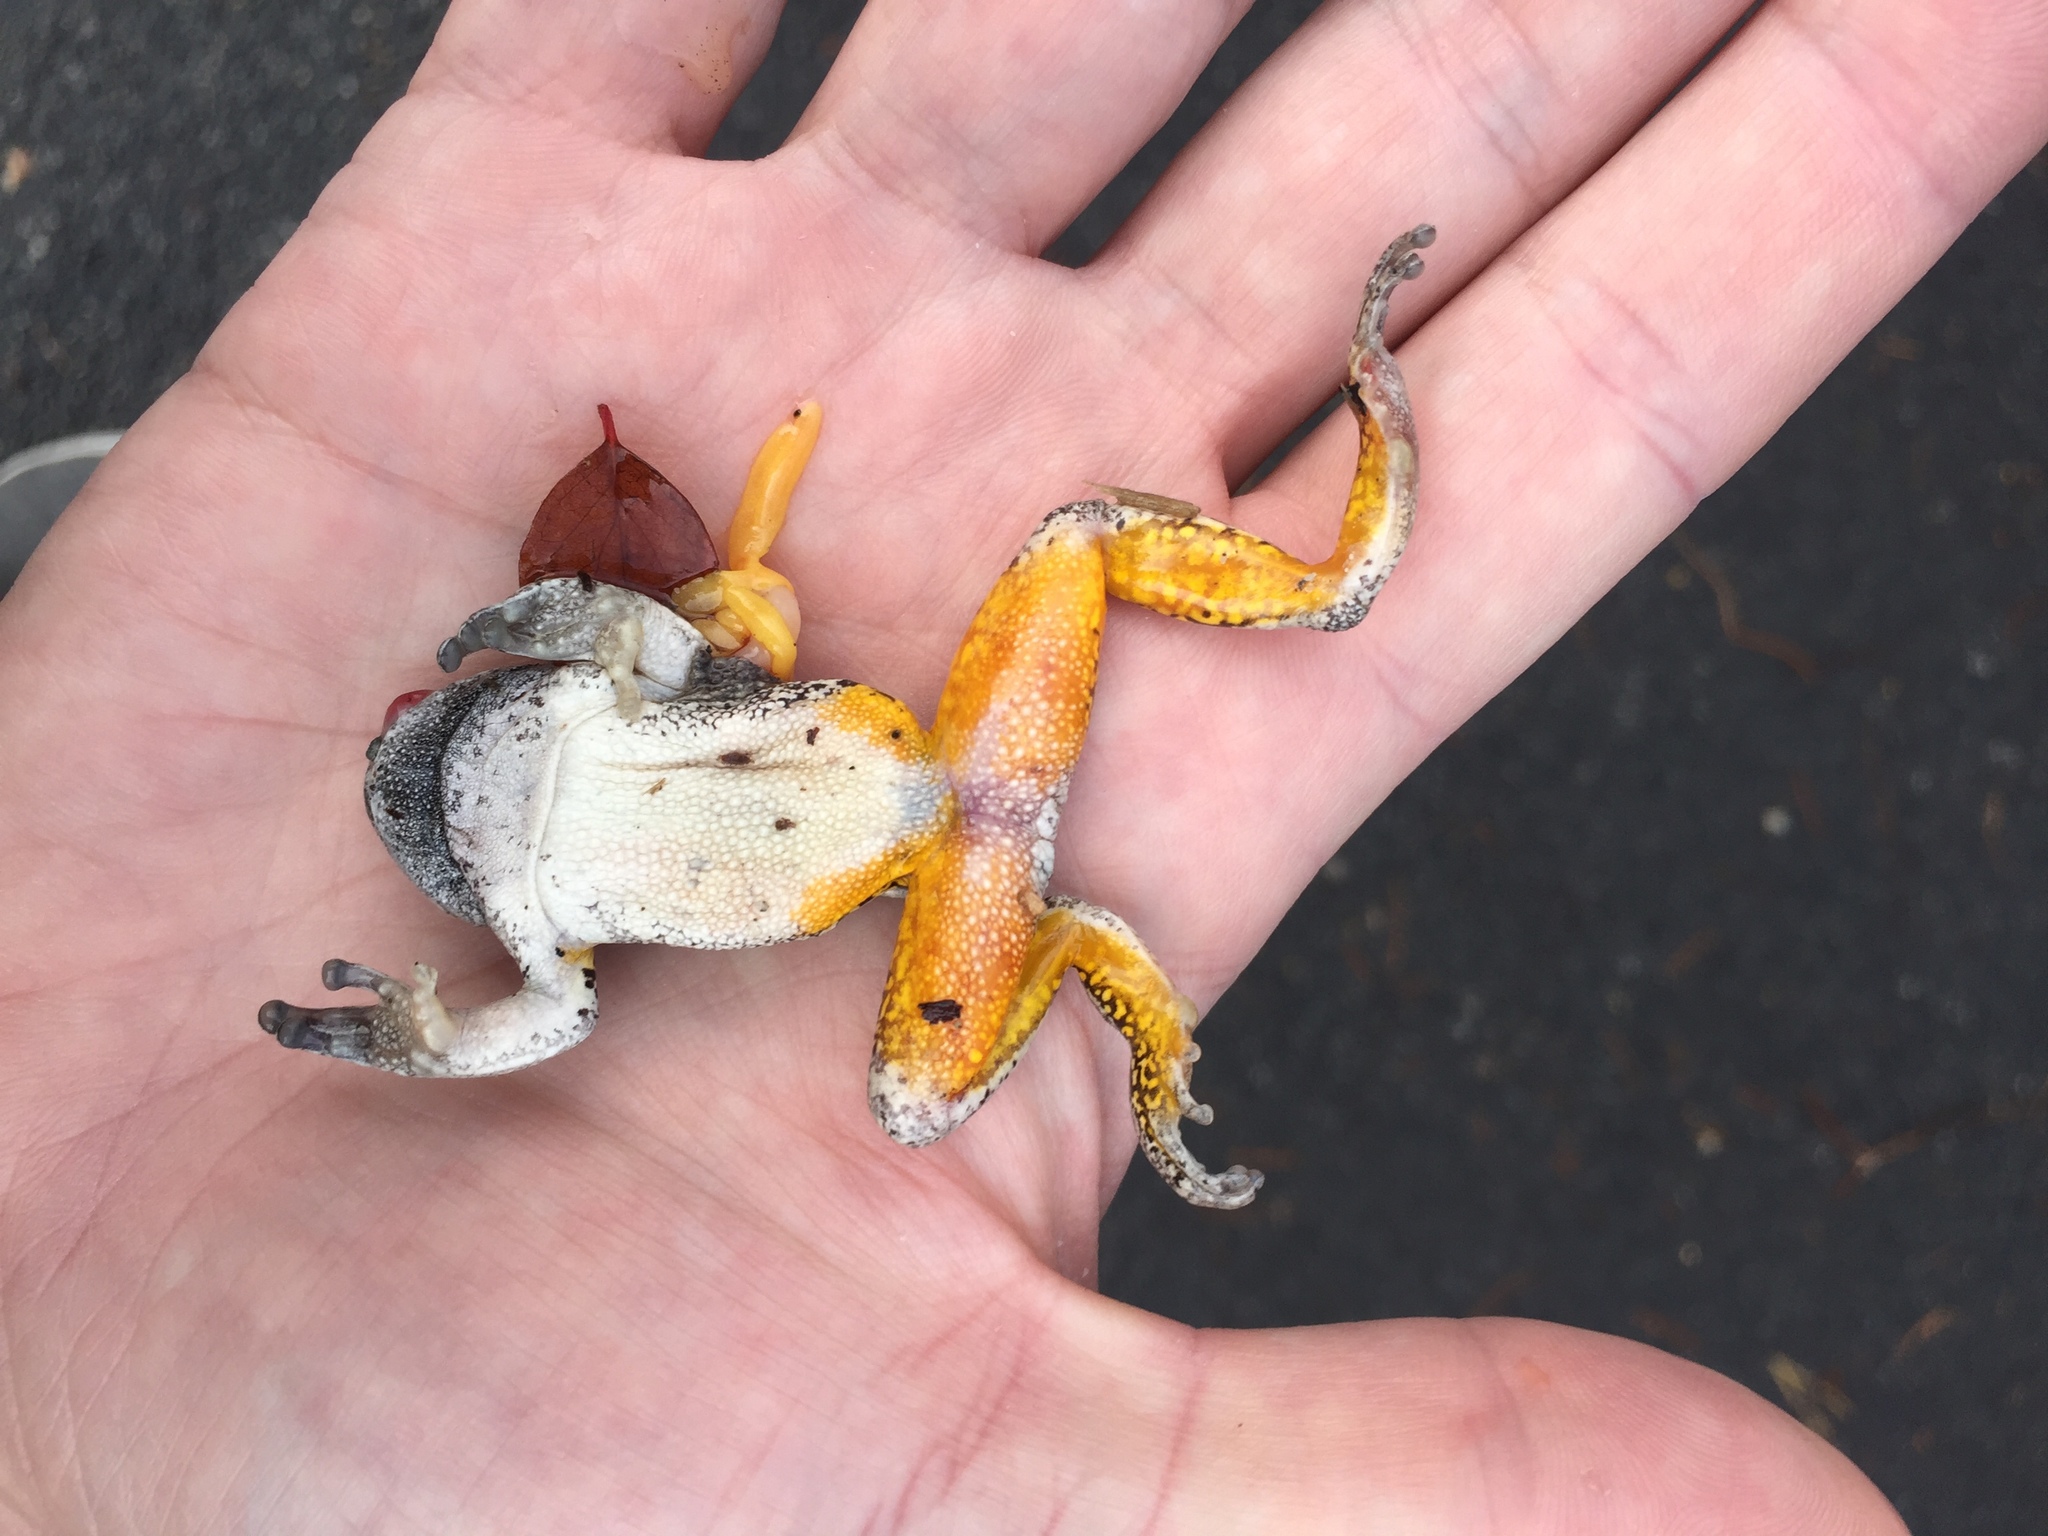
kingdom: Animalia
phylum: Chordata
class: Amphibia
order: Anura
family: Hylidae
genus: Dryophytes
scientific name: Dryophytes versicolor
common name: Gray treefrog
